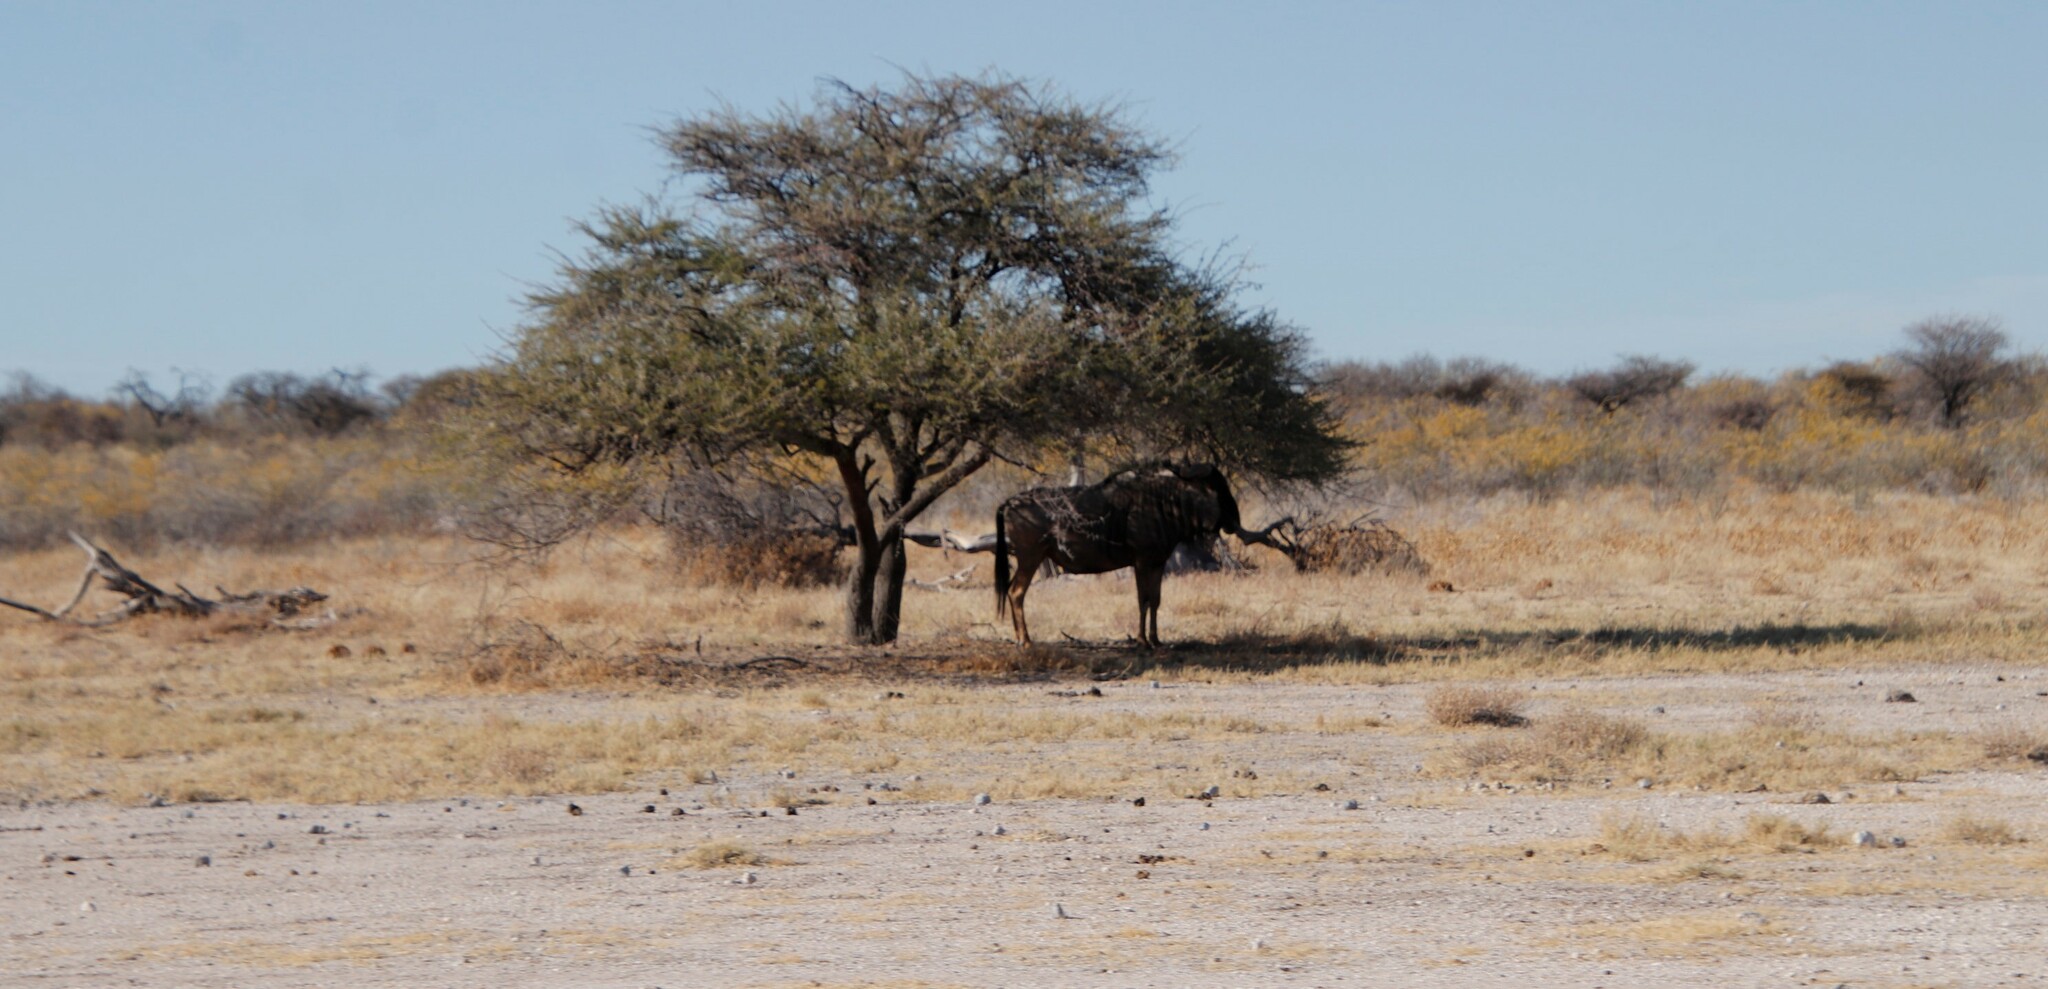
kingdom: Animalia
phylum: Chordata
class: Mammalia
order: Artiodactyla
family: Bovidae
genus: Connochaetes
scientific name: Connochaetes taurinus
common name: Blue wildebeest
